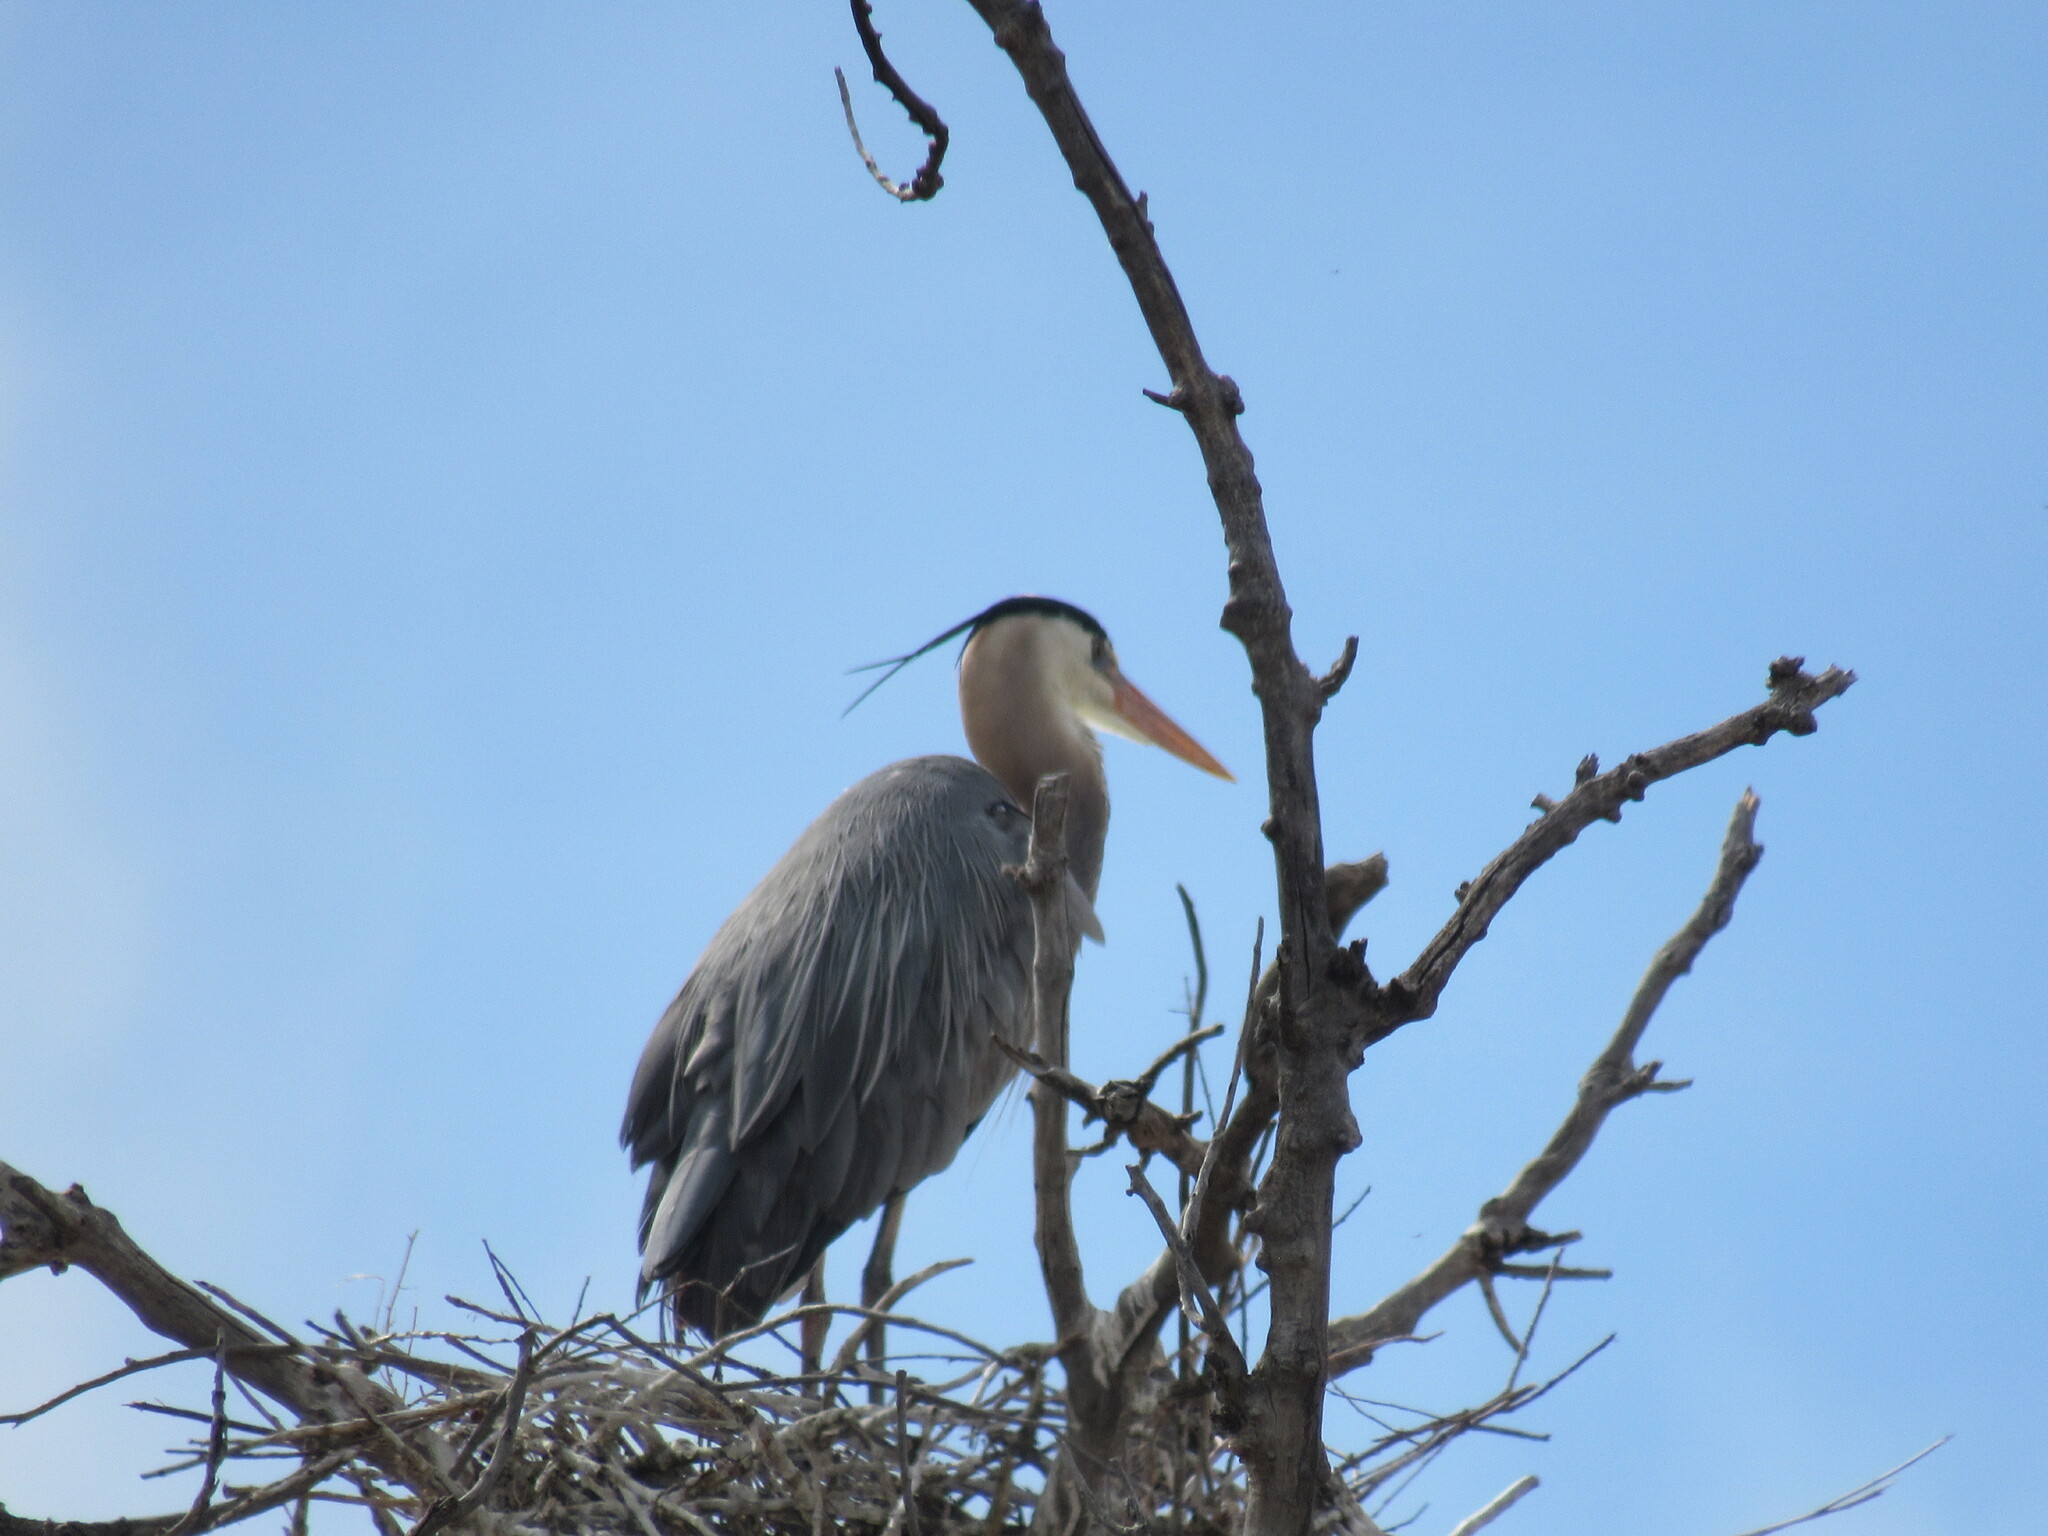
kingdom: Animalia
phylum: Chordata
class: Aves
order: Pelecaniformes
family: Ardeidae
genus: Ardea
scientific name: Ardea herodias
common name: Great blue heron
